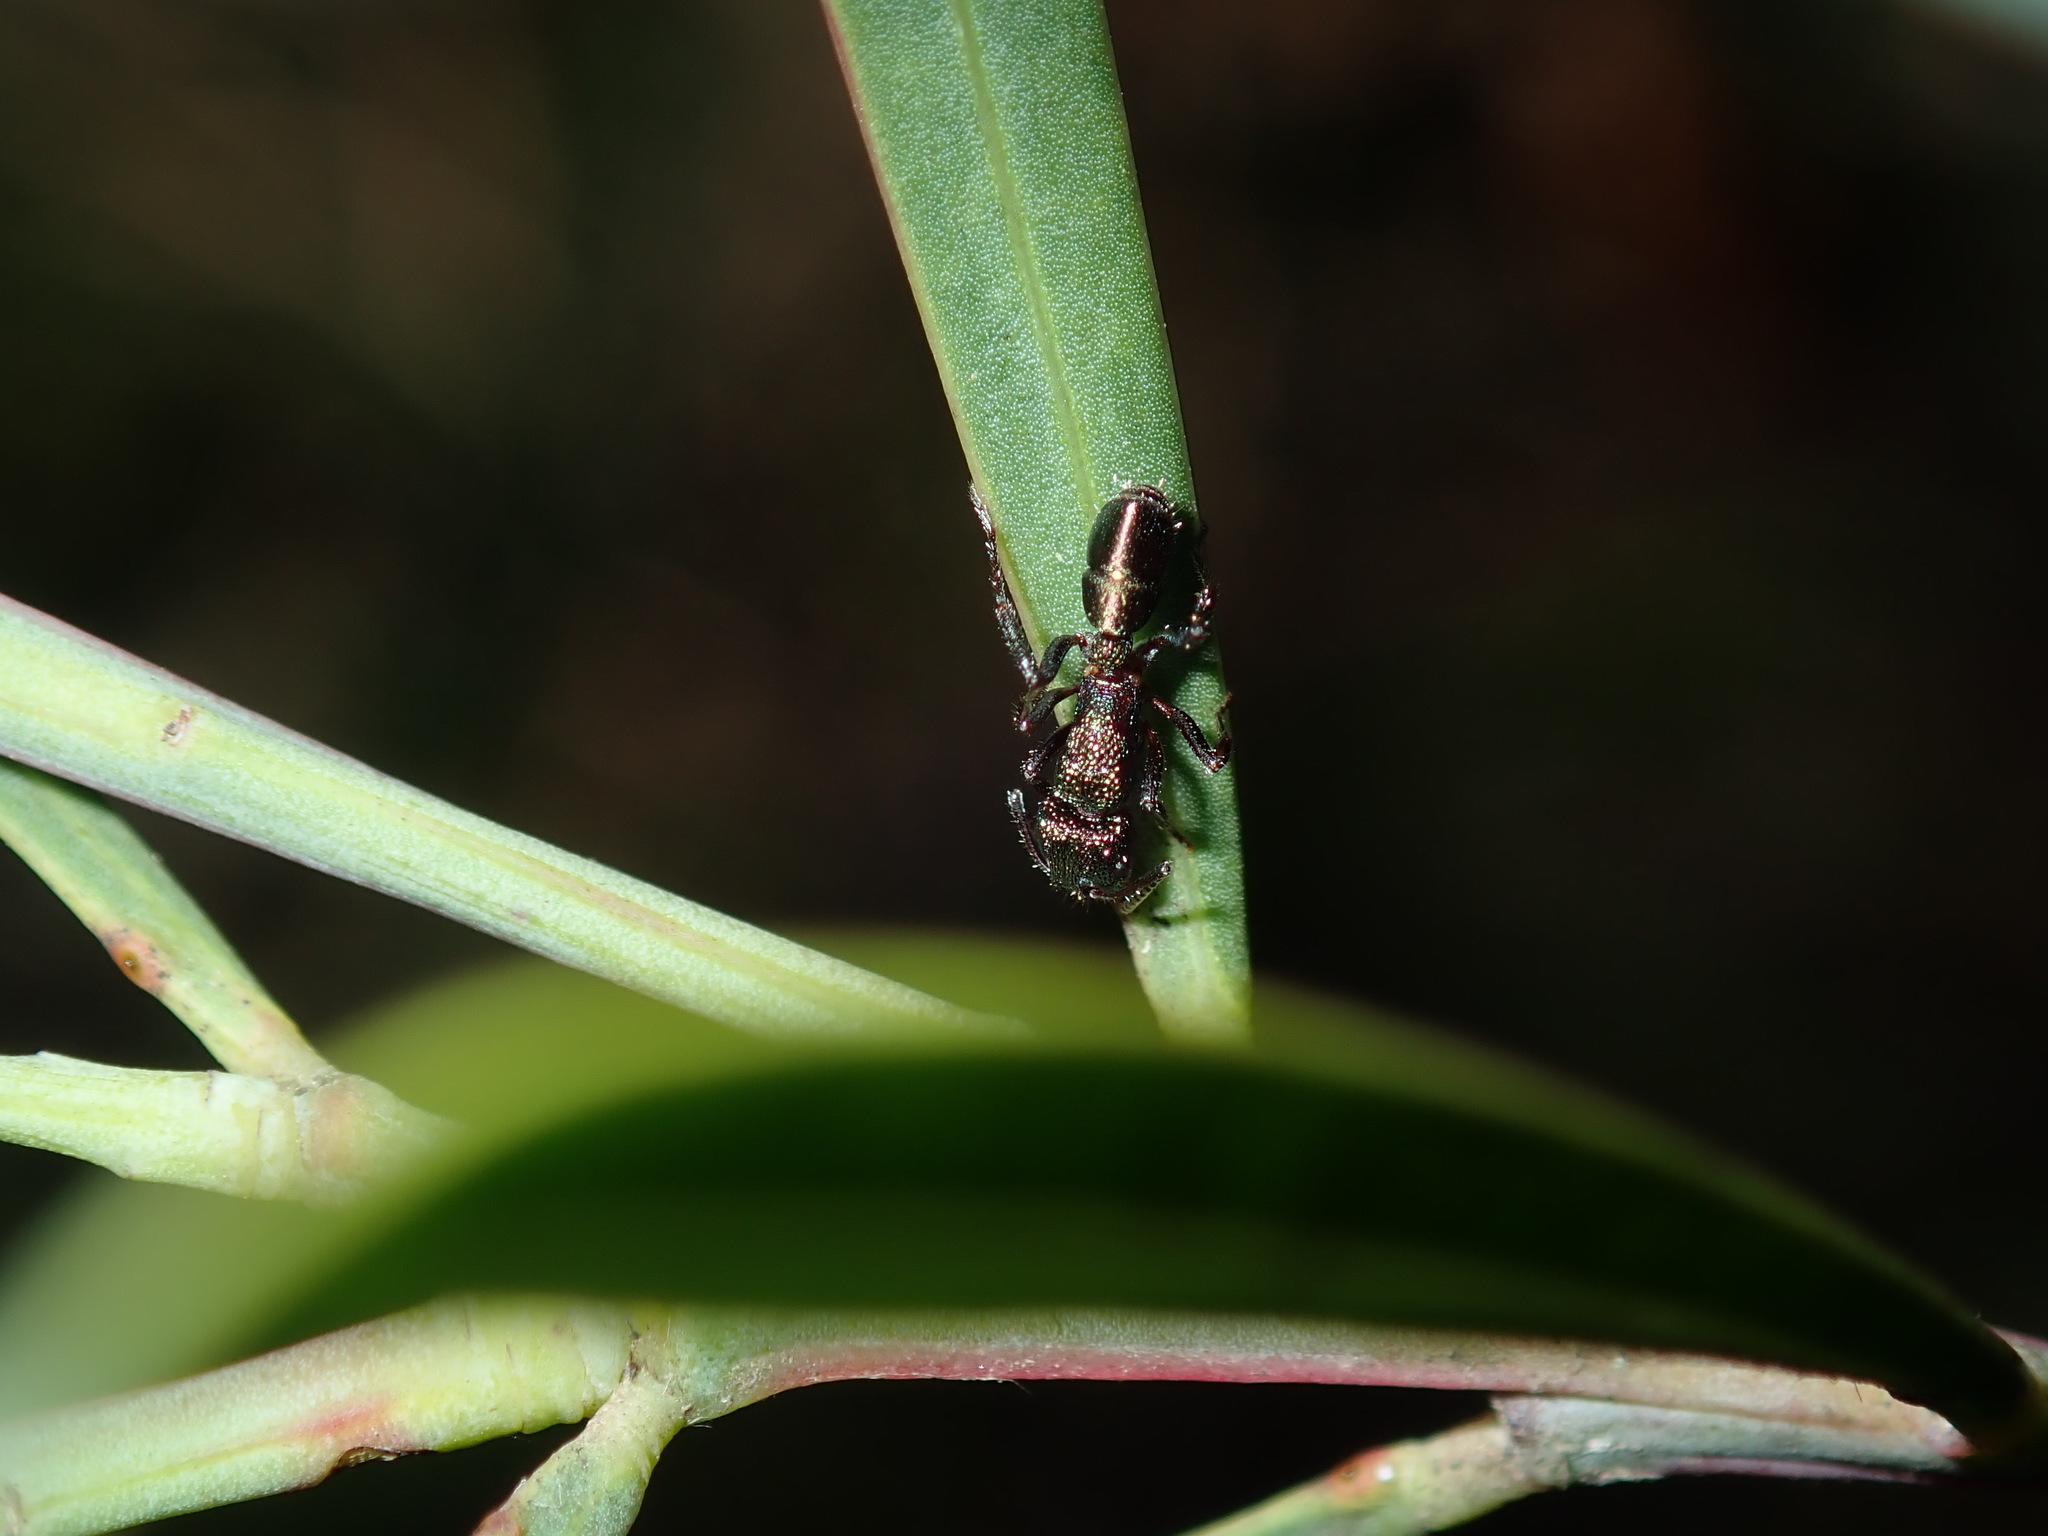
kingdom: Animalia
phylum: Arthropoda
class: Insecta
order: Hymenoptera
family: Formicidae
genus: Rhytidoponera
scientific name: Rhytidoponera metallica
